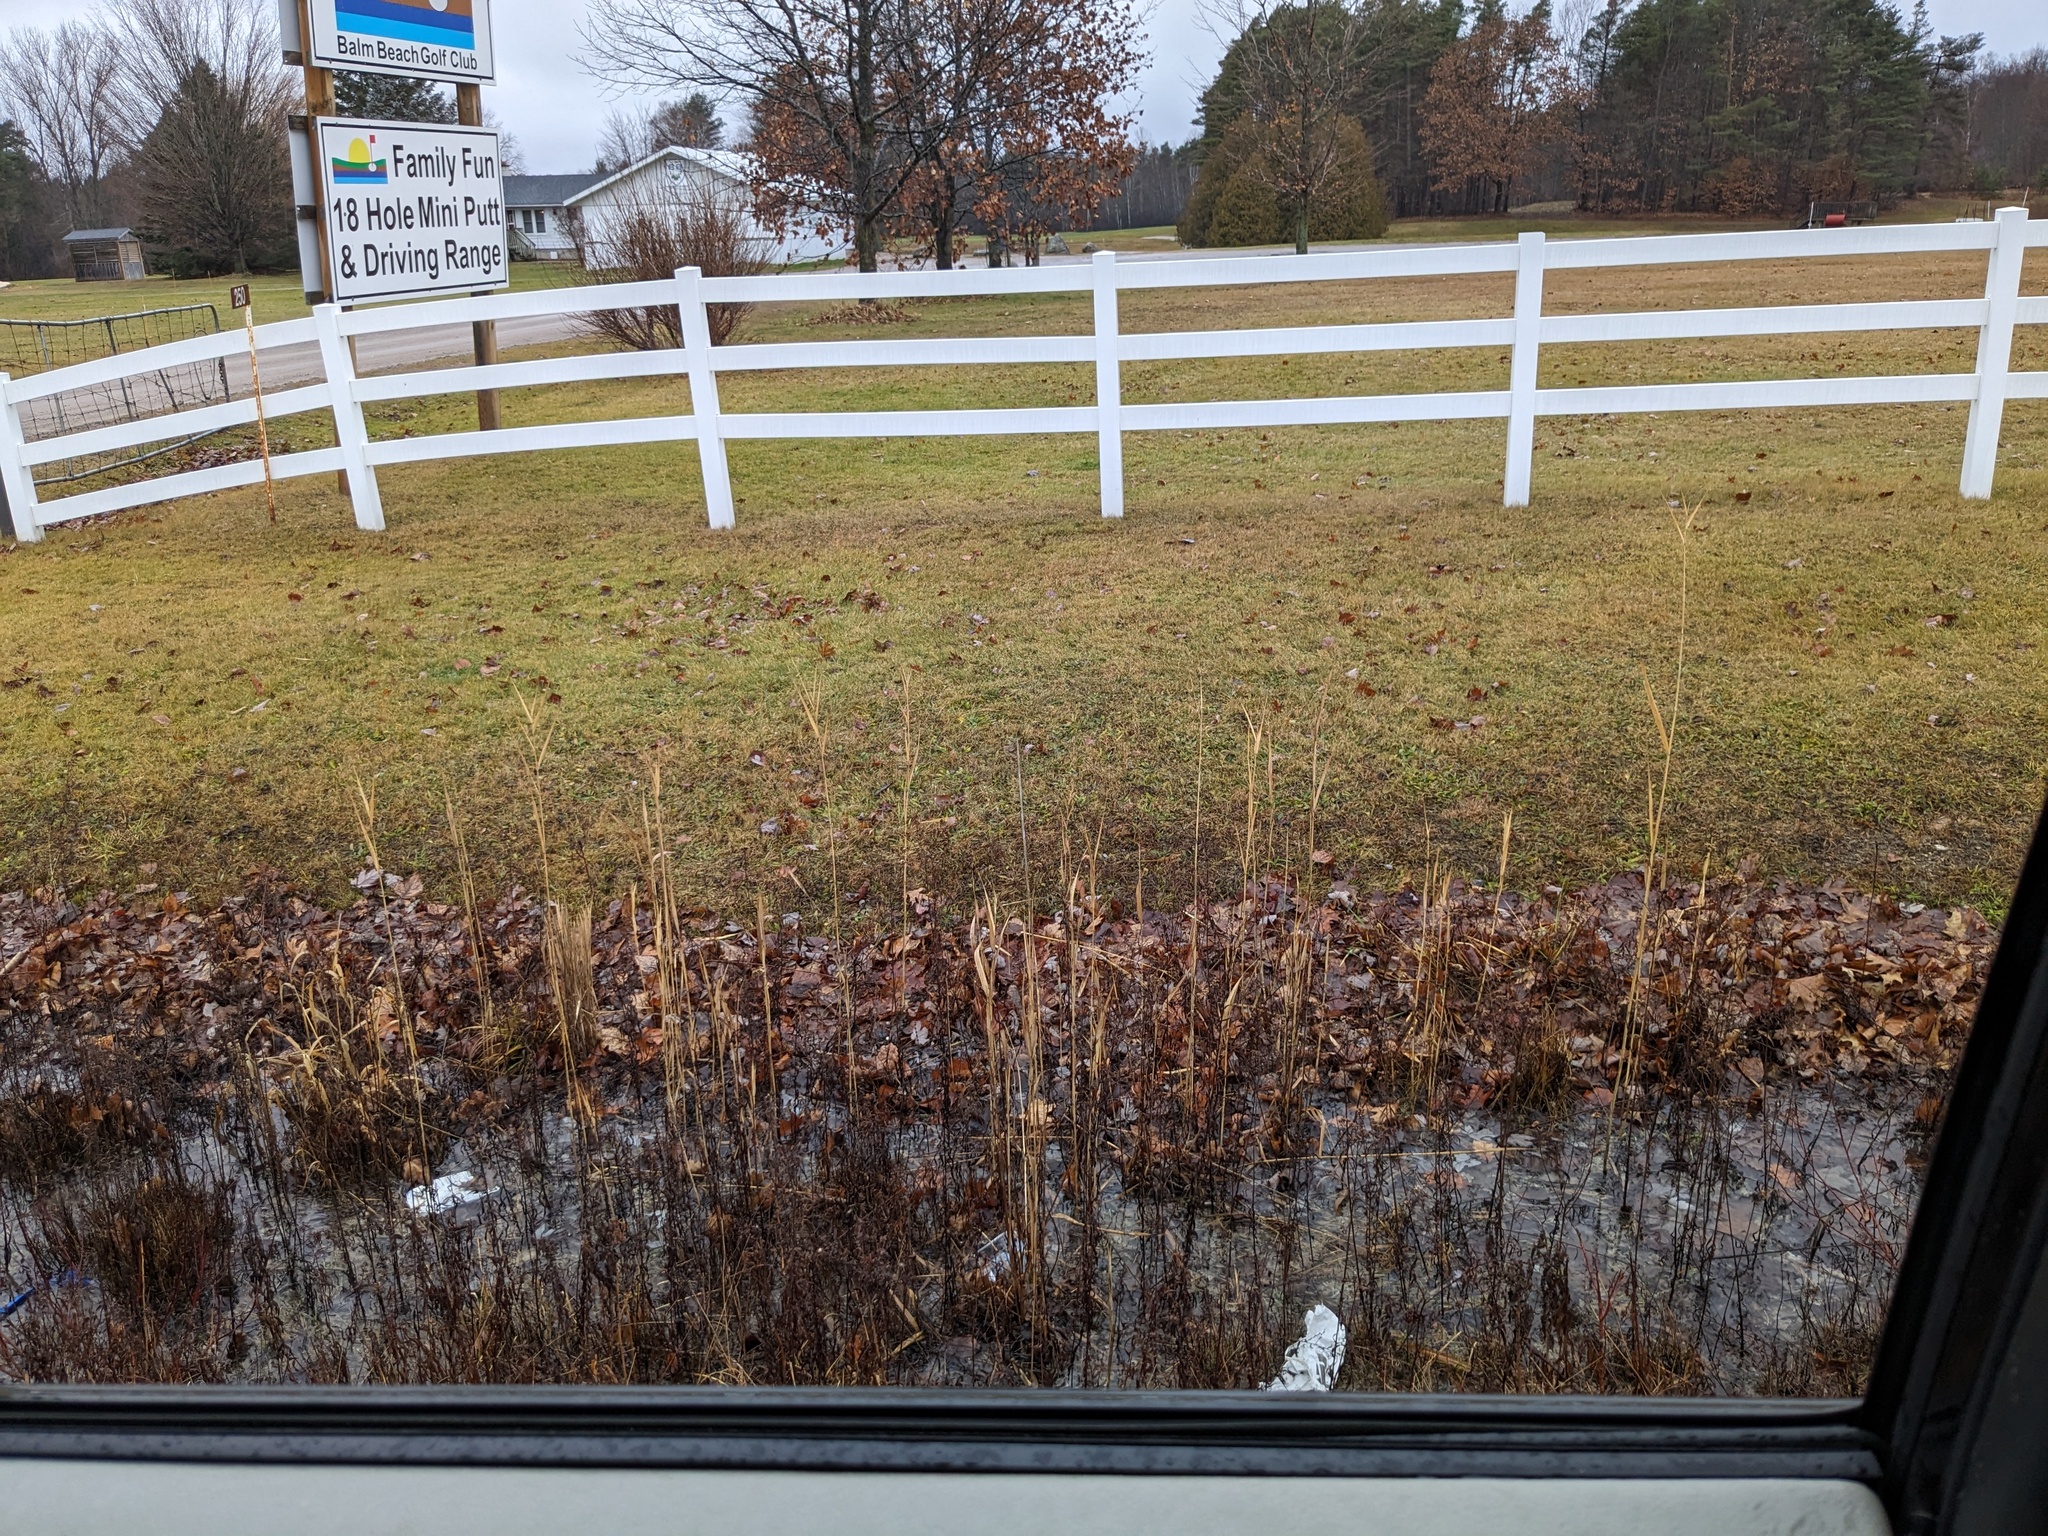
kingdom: Plantae
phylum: Tracheophyta
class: Liliopsida
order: Poales
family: Poaceae
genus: Phragmites
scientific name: Phragmites australis
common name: Common reed
